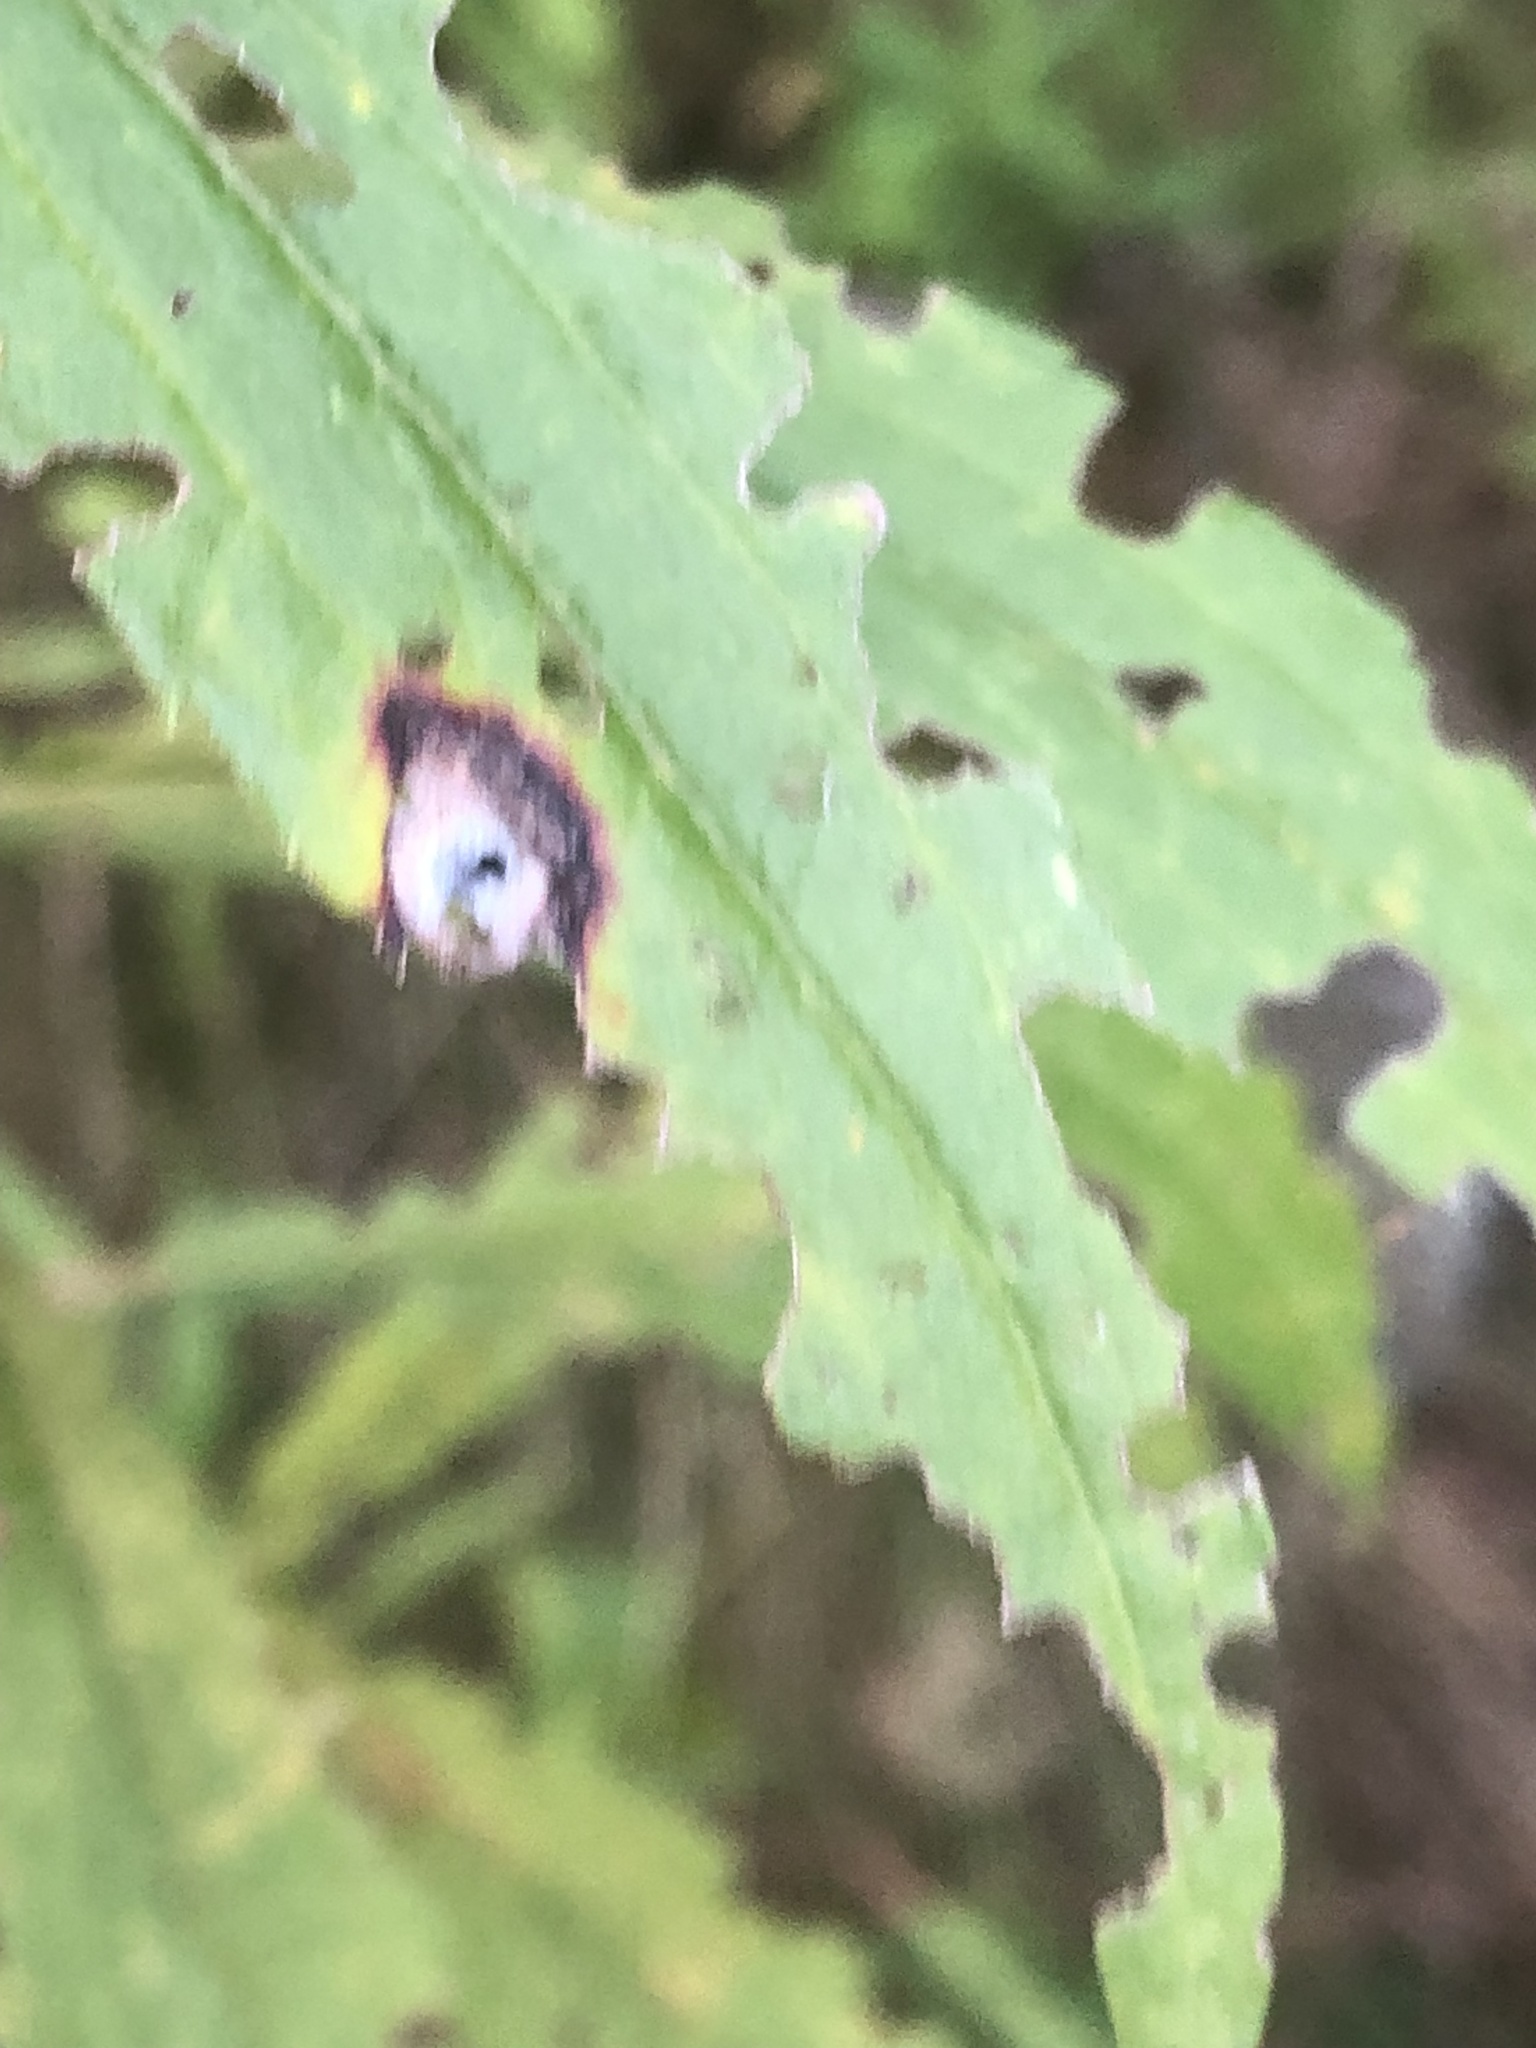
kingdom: Animalia
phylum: Arthropoda
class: Insecta
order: Diptera
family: Cecidomyiidae
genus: Asteromyia
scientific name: Asteromyia carbonifera
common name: Carbonifera goldenrod gall midge
